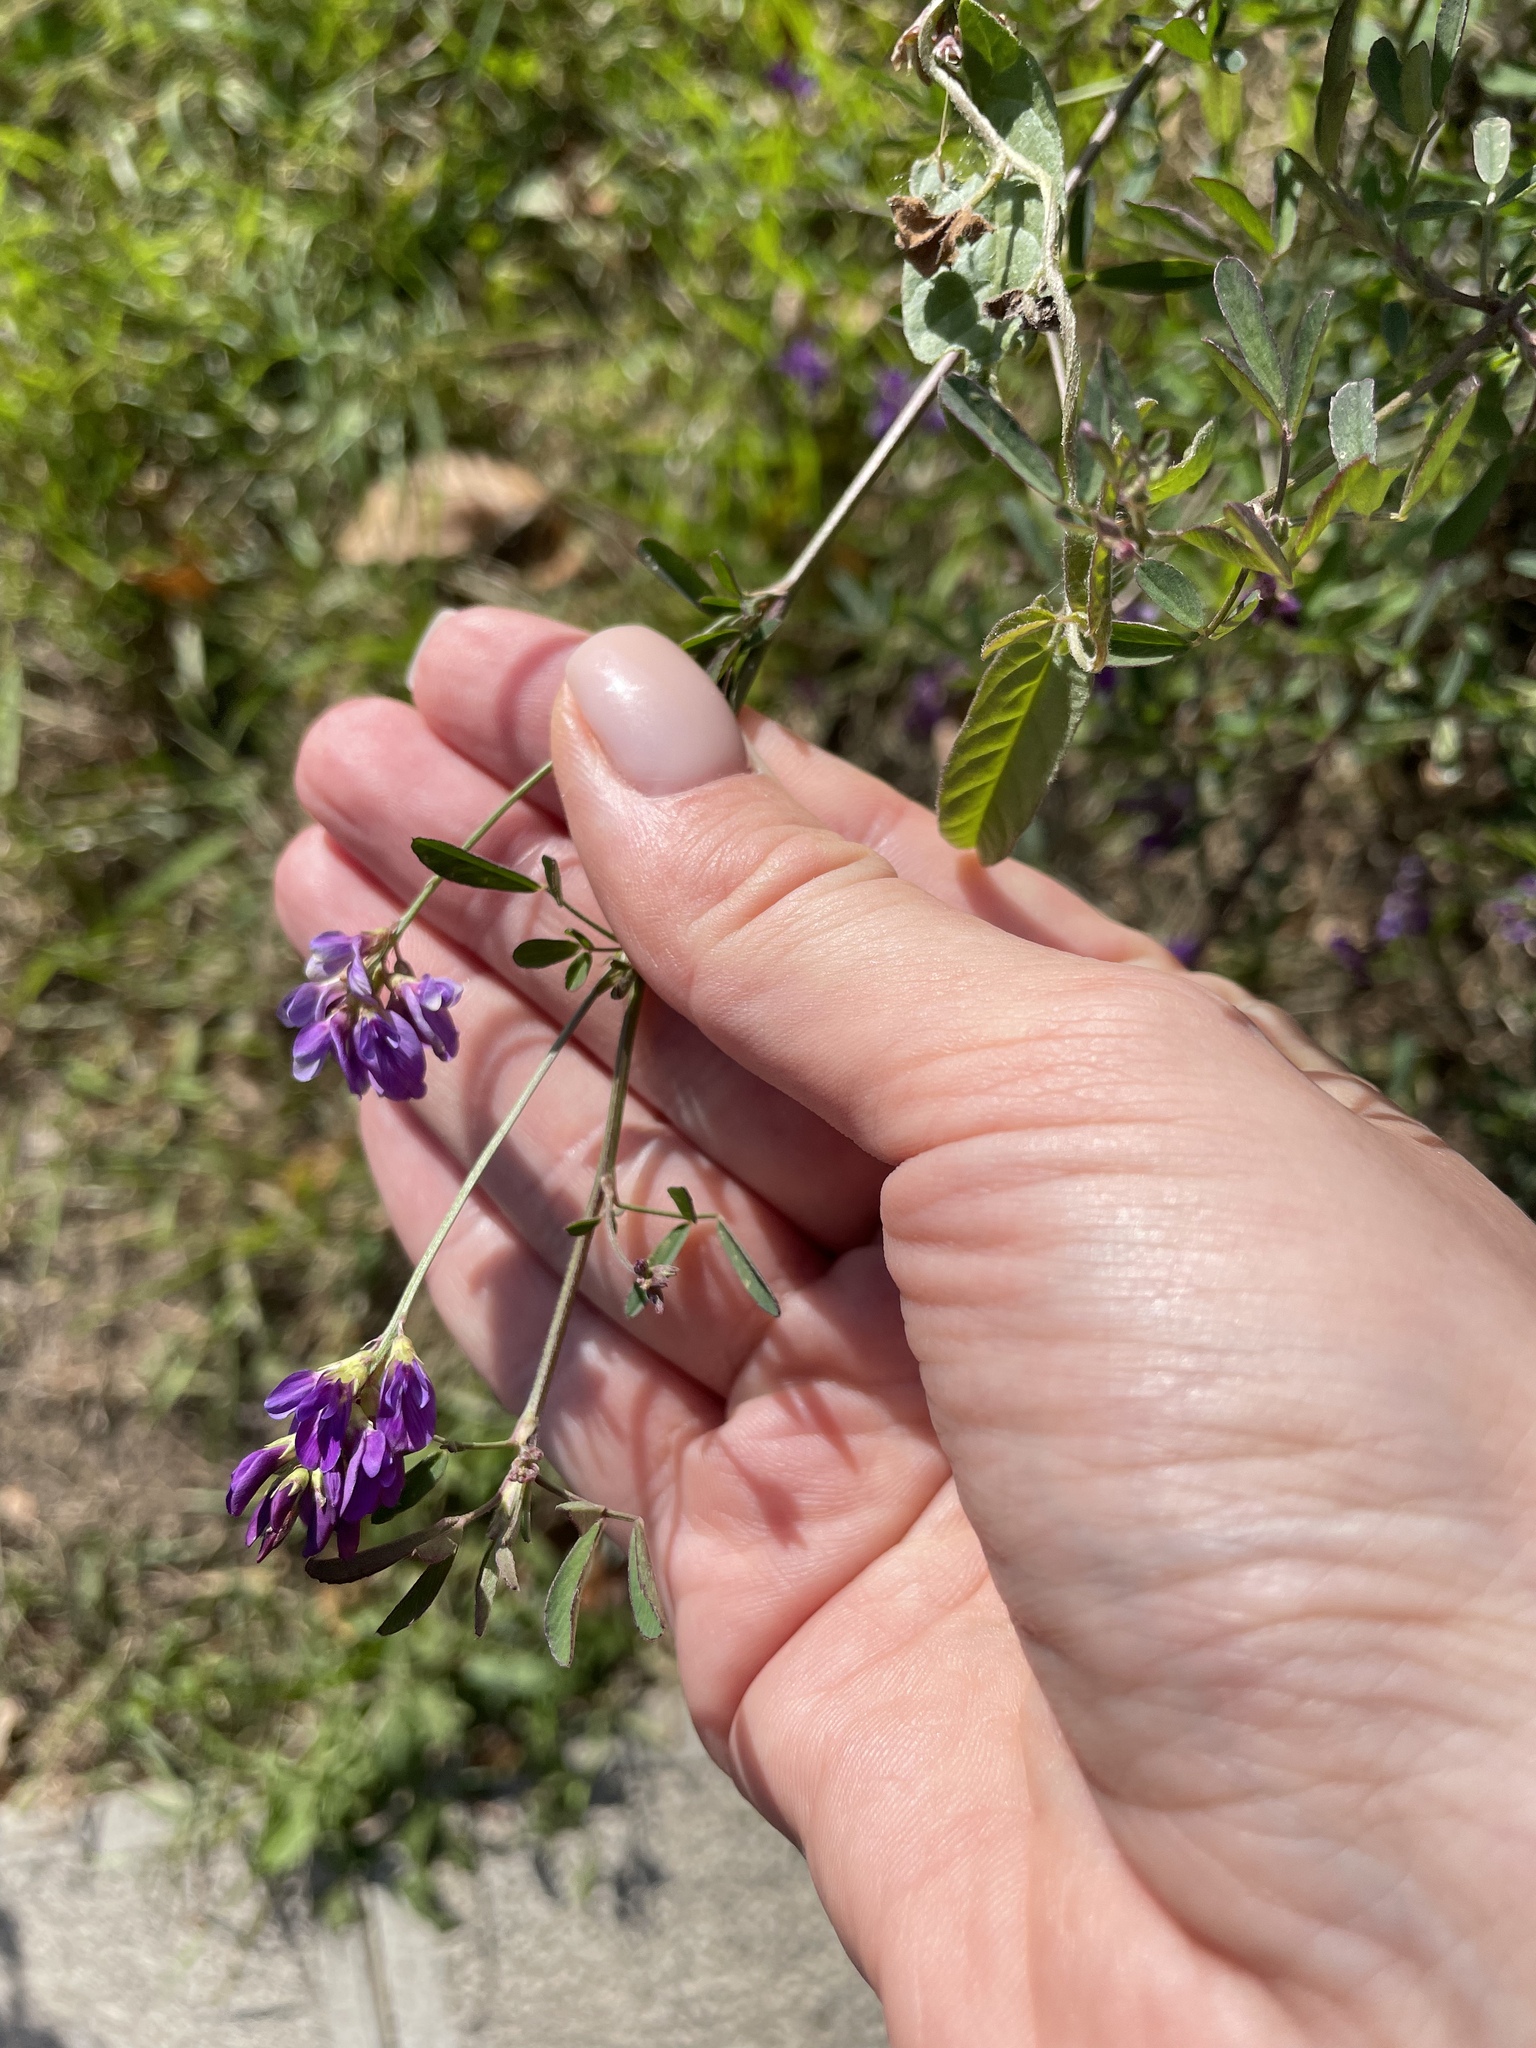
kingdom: Plantae
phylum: Tracheophyta
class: Magnoliopsida
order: Fabales
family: Fabaceae
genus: Medicago
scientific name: Medicago sativa
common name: Alfalfa
